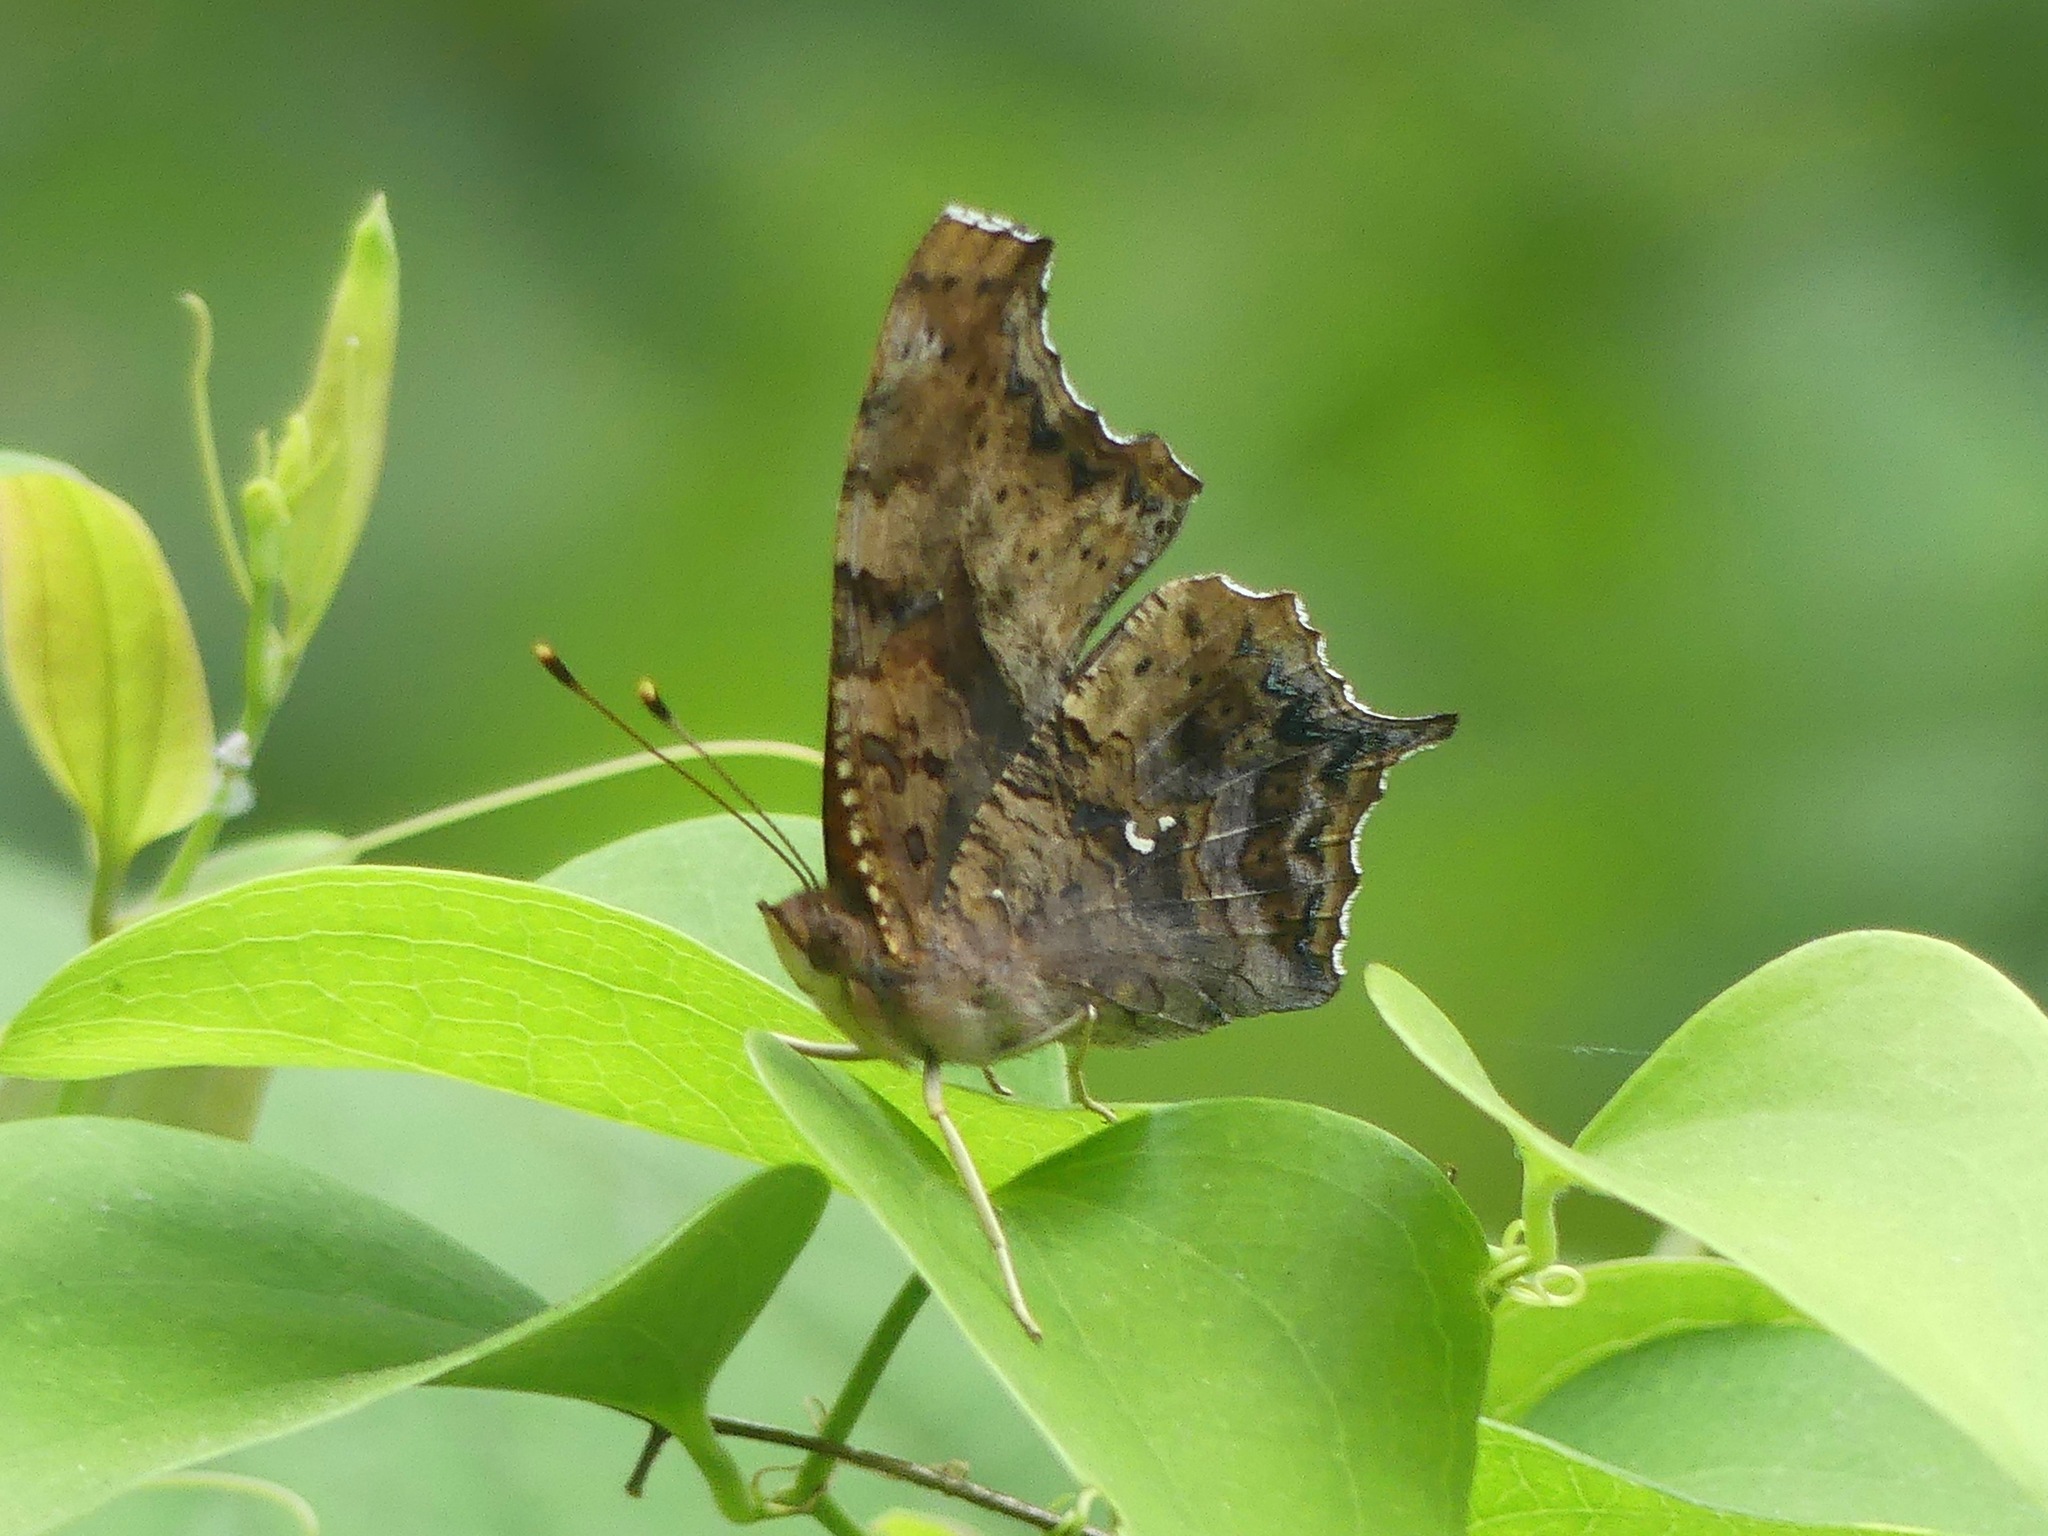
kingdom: Animalia
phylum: Arthropoda
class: Insecta
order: Lepidoptera
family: Nymphalidae
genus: Polygonia
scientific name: Polygonia interrogationis
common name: Question mark
